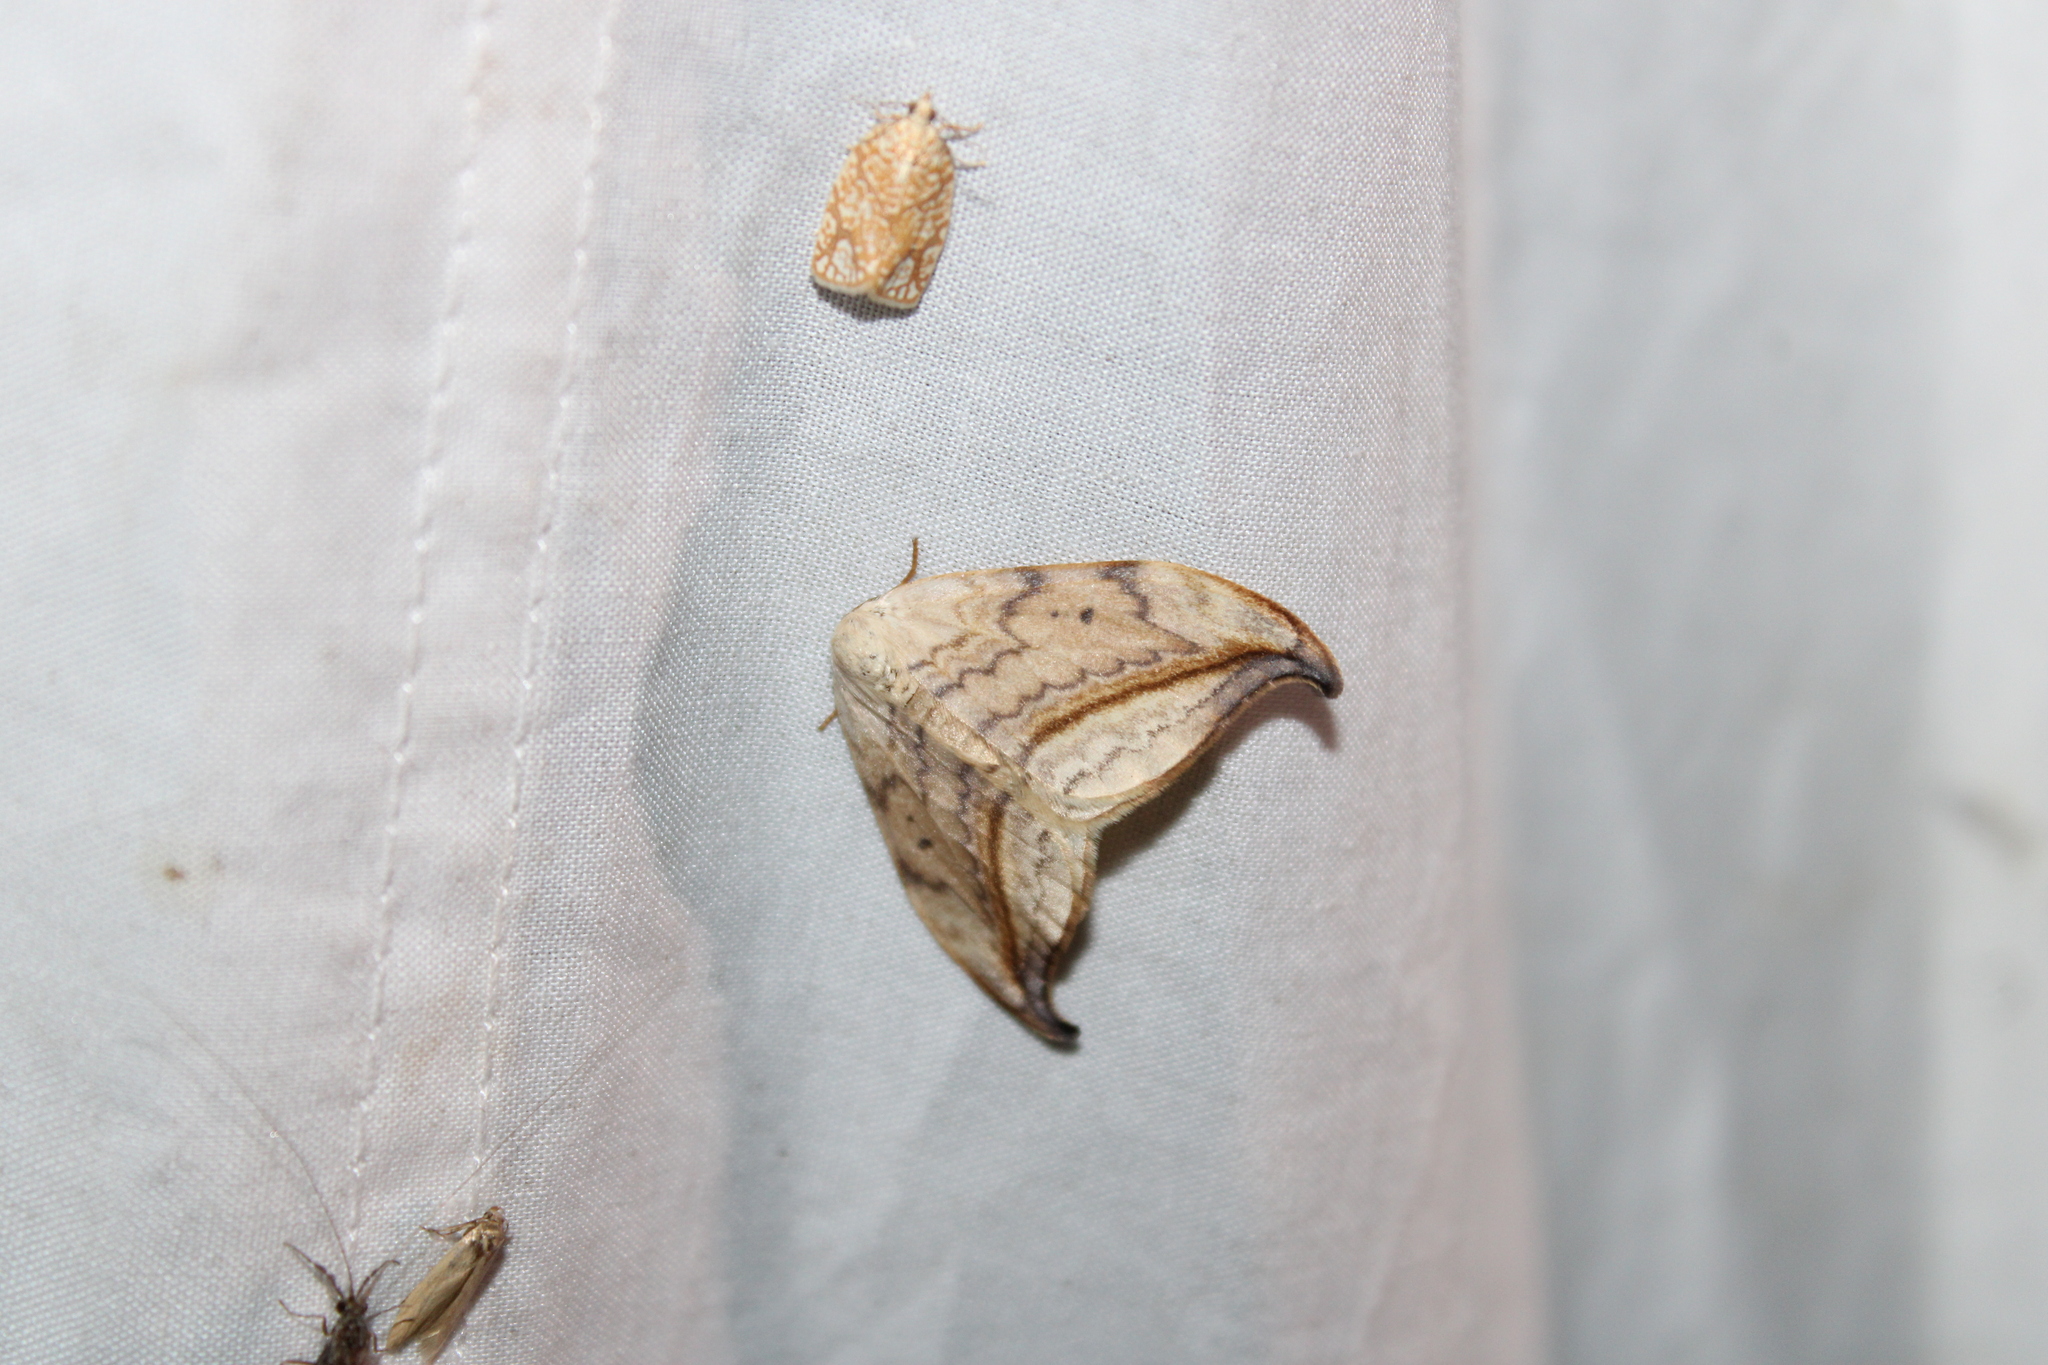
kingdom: Animalia
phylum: Arthropoda
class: Insecta
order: Lepidoptera
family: Drepanidae
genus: Drepana
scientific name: Drepana arcuata
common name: Arched hooktip moth
